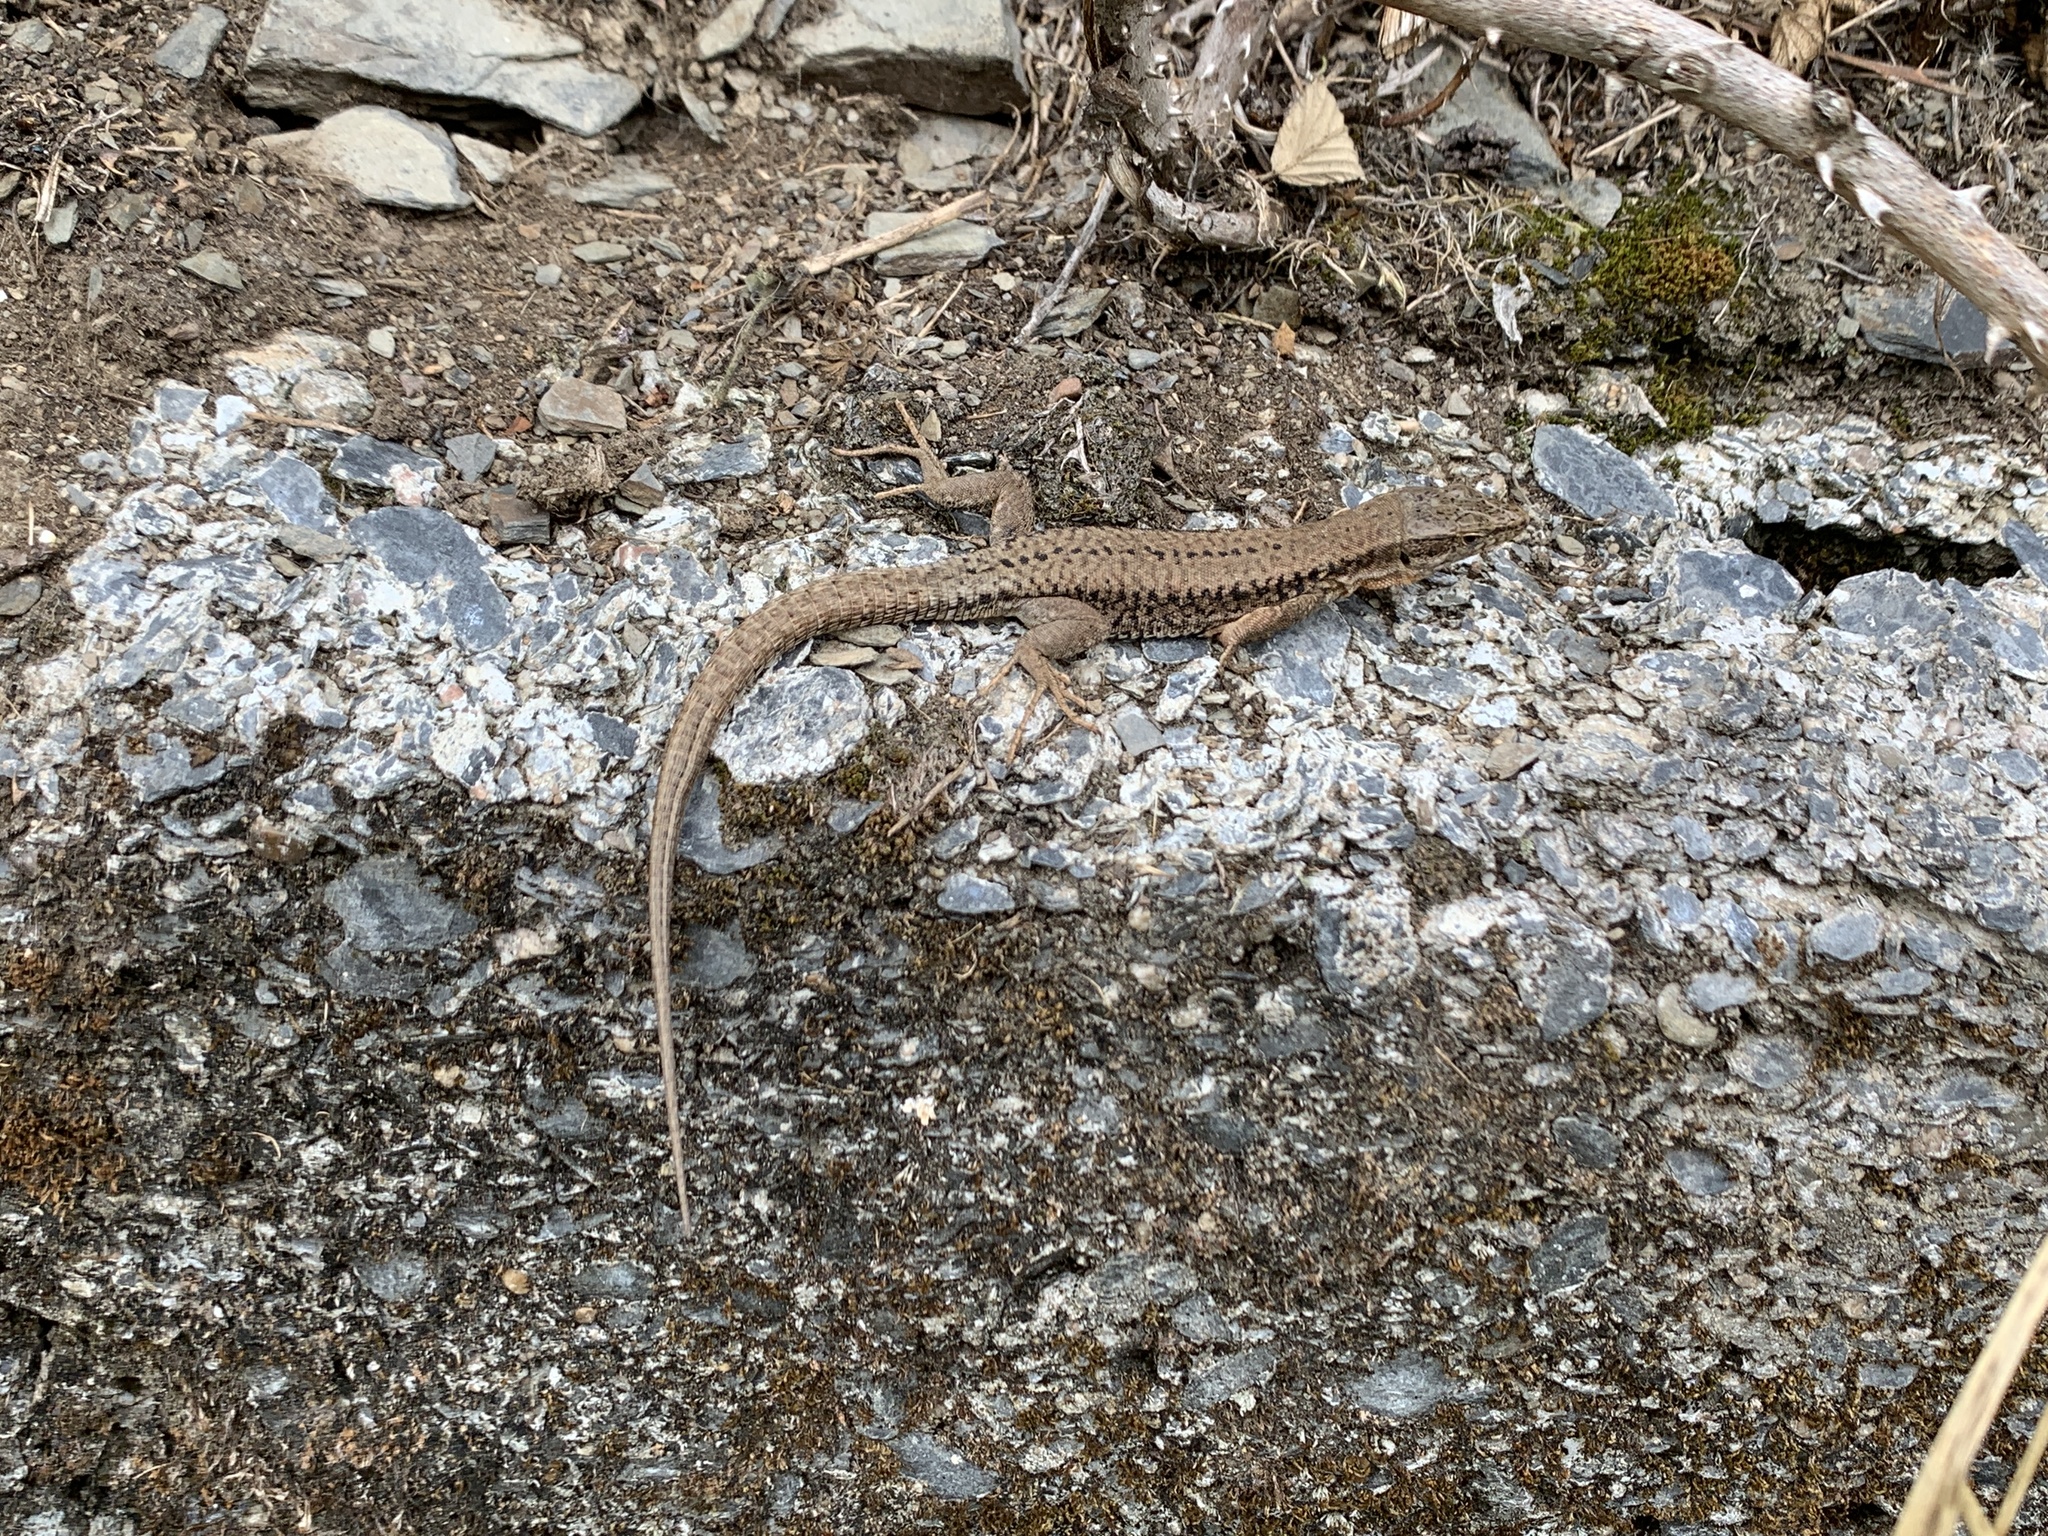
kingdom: Animalia
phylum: Chordata
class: Squamata
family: Lacertidae
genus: Podarcis
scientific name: Podarcis muralis
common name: Common wall lizard
